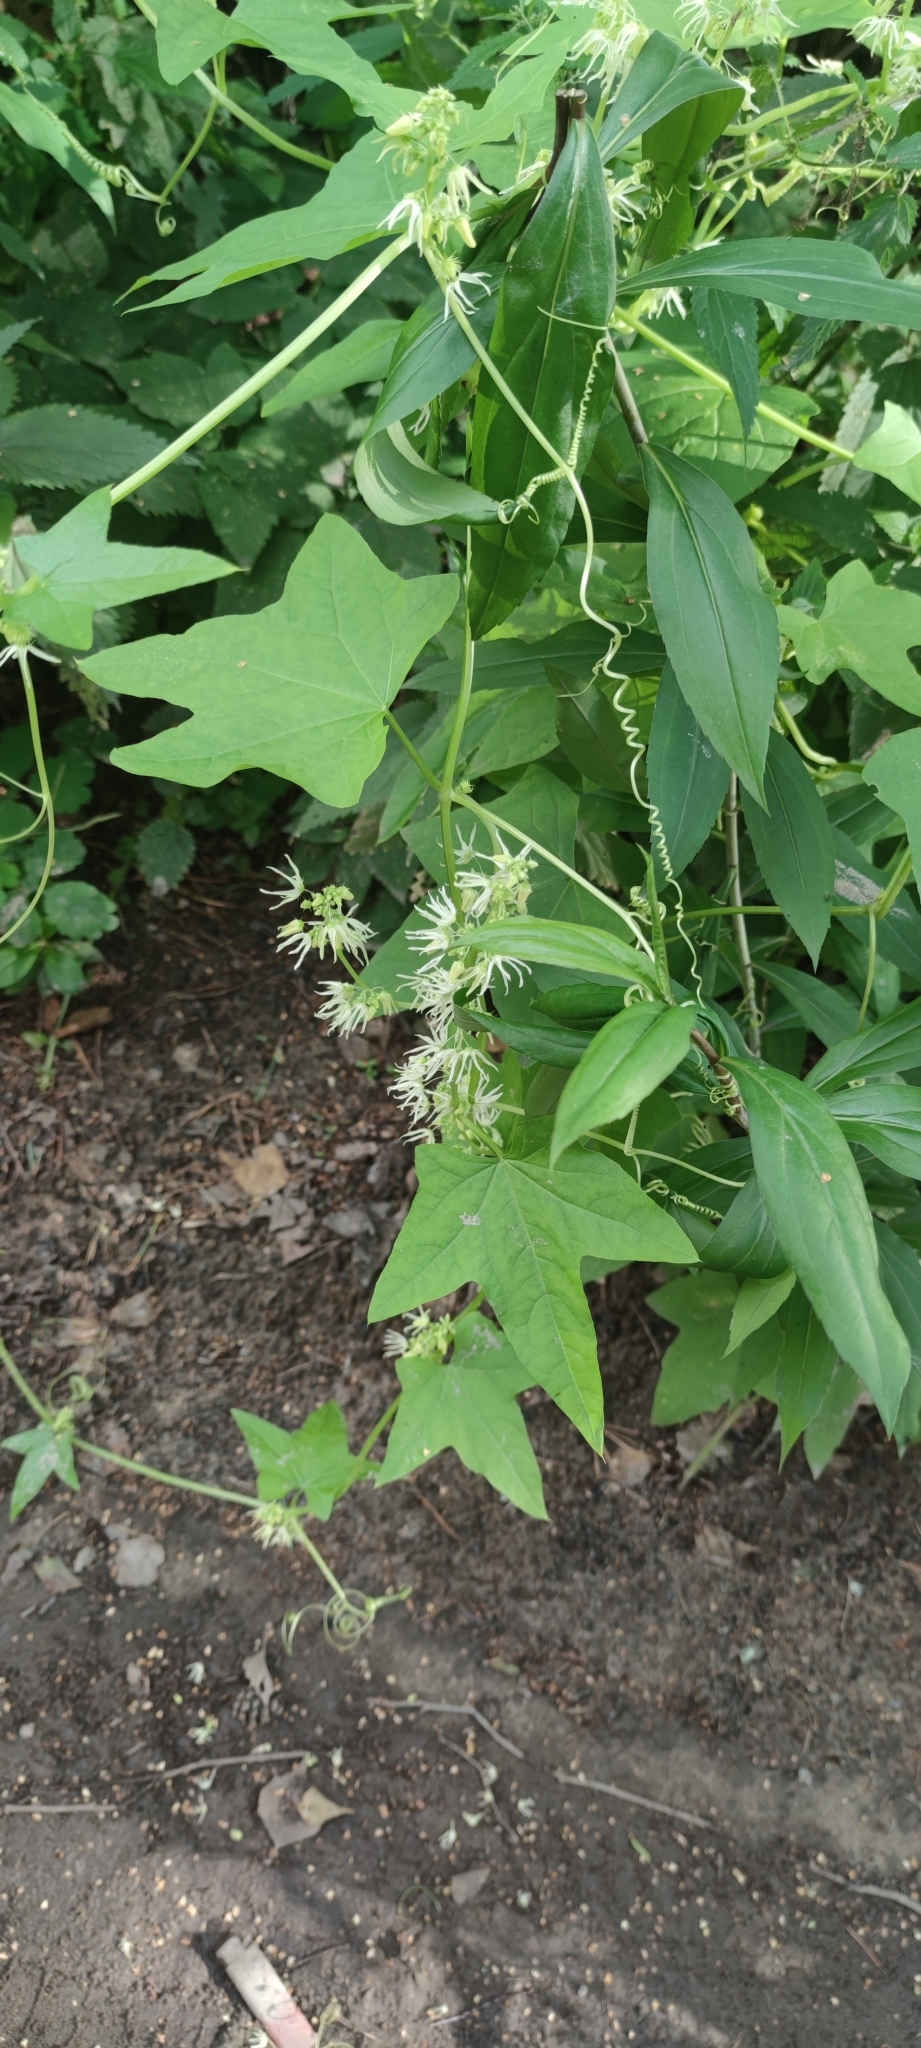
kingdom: Plantae
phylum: Tracheophyta
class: Magnoliopsida
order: Cucurbitales
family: Cucurbitaceae
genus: Echinocystis
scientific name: Echinocystis lobata
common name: Wild cucumber
